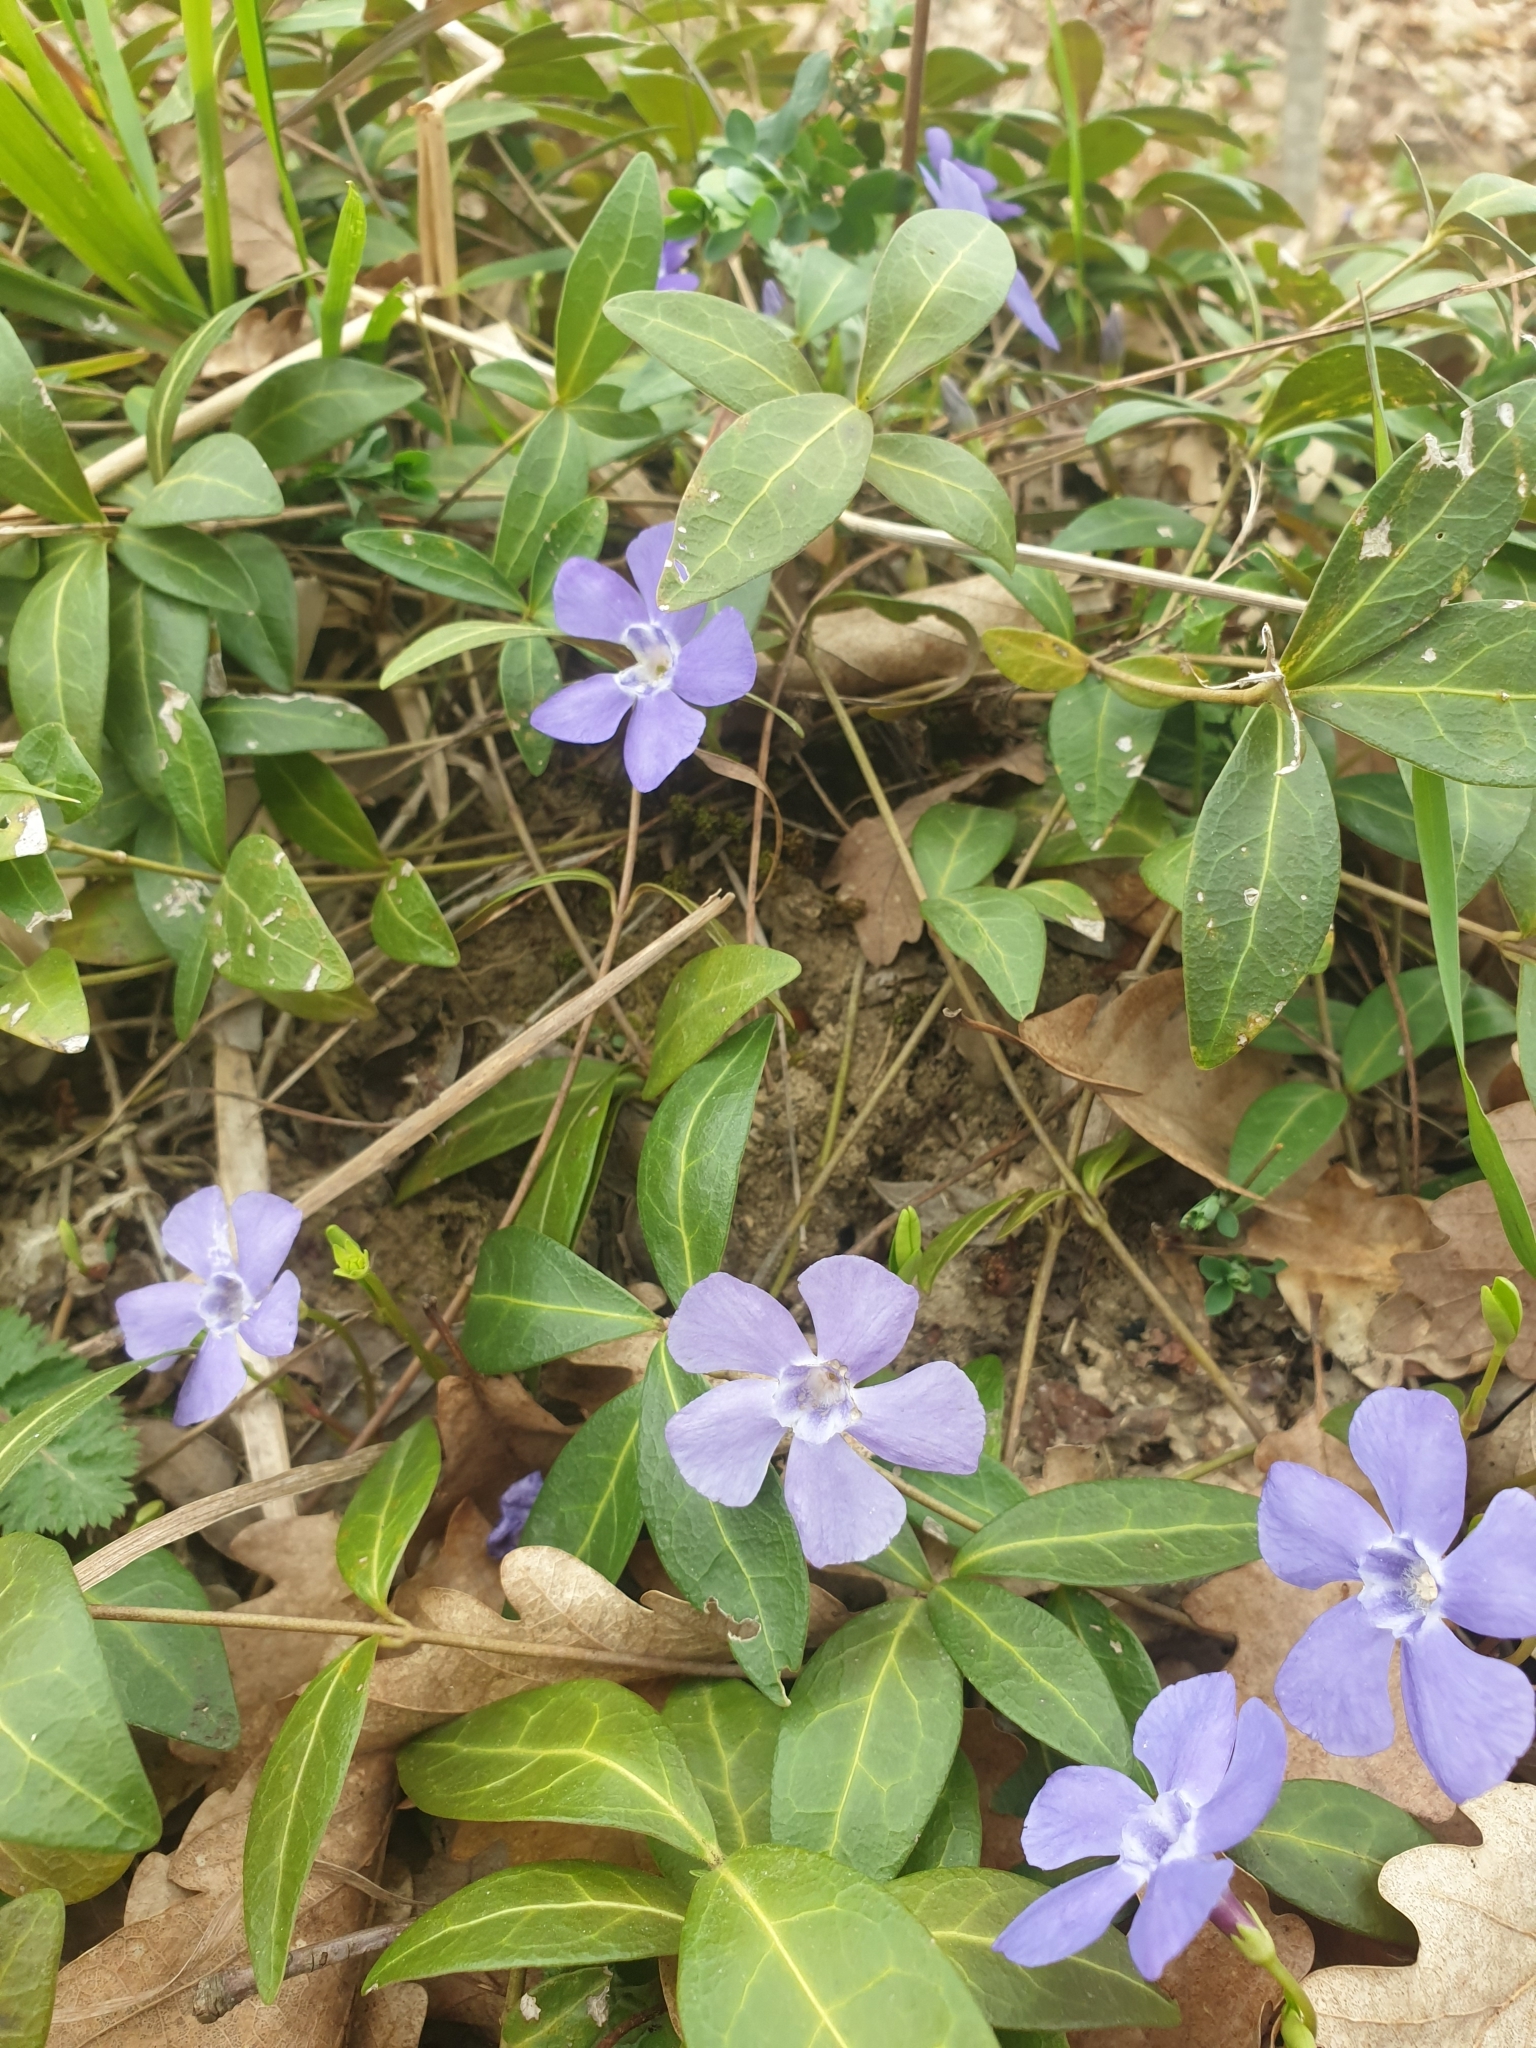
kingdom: Plantae
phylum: Tracheophyta
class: Magnoliopsida
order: Gentianales
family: Apocynaceae
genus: Vinca
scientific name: Vinca minor
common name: Lesser periwinkle
